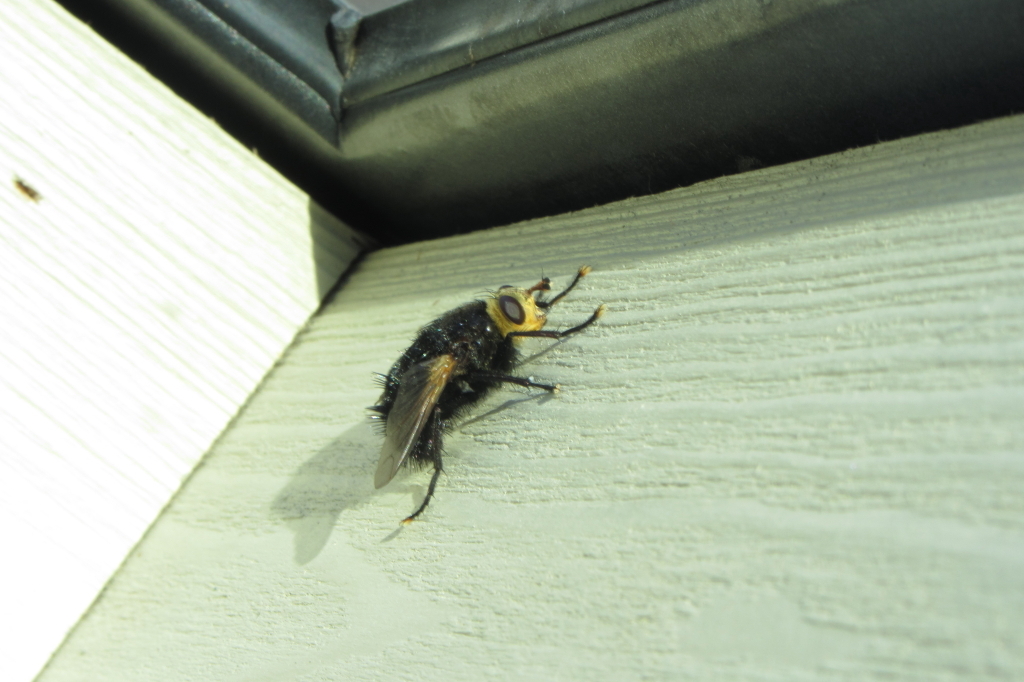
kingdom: Animalia
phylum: Arthropoda
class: Insecta
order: Diptera
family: Tachinidae
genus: Tachina
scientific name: Tachina grossa
